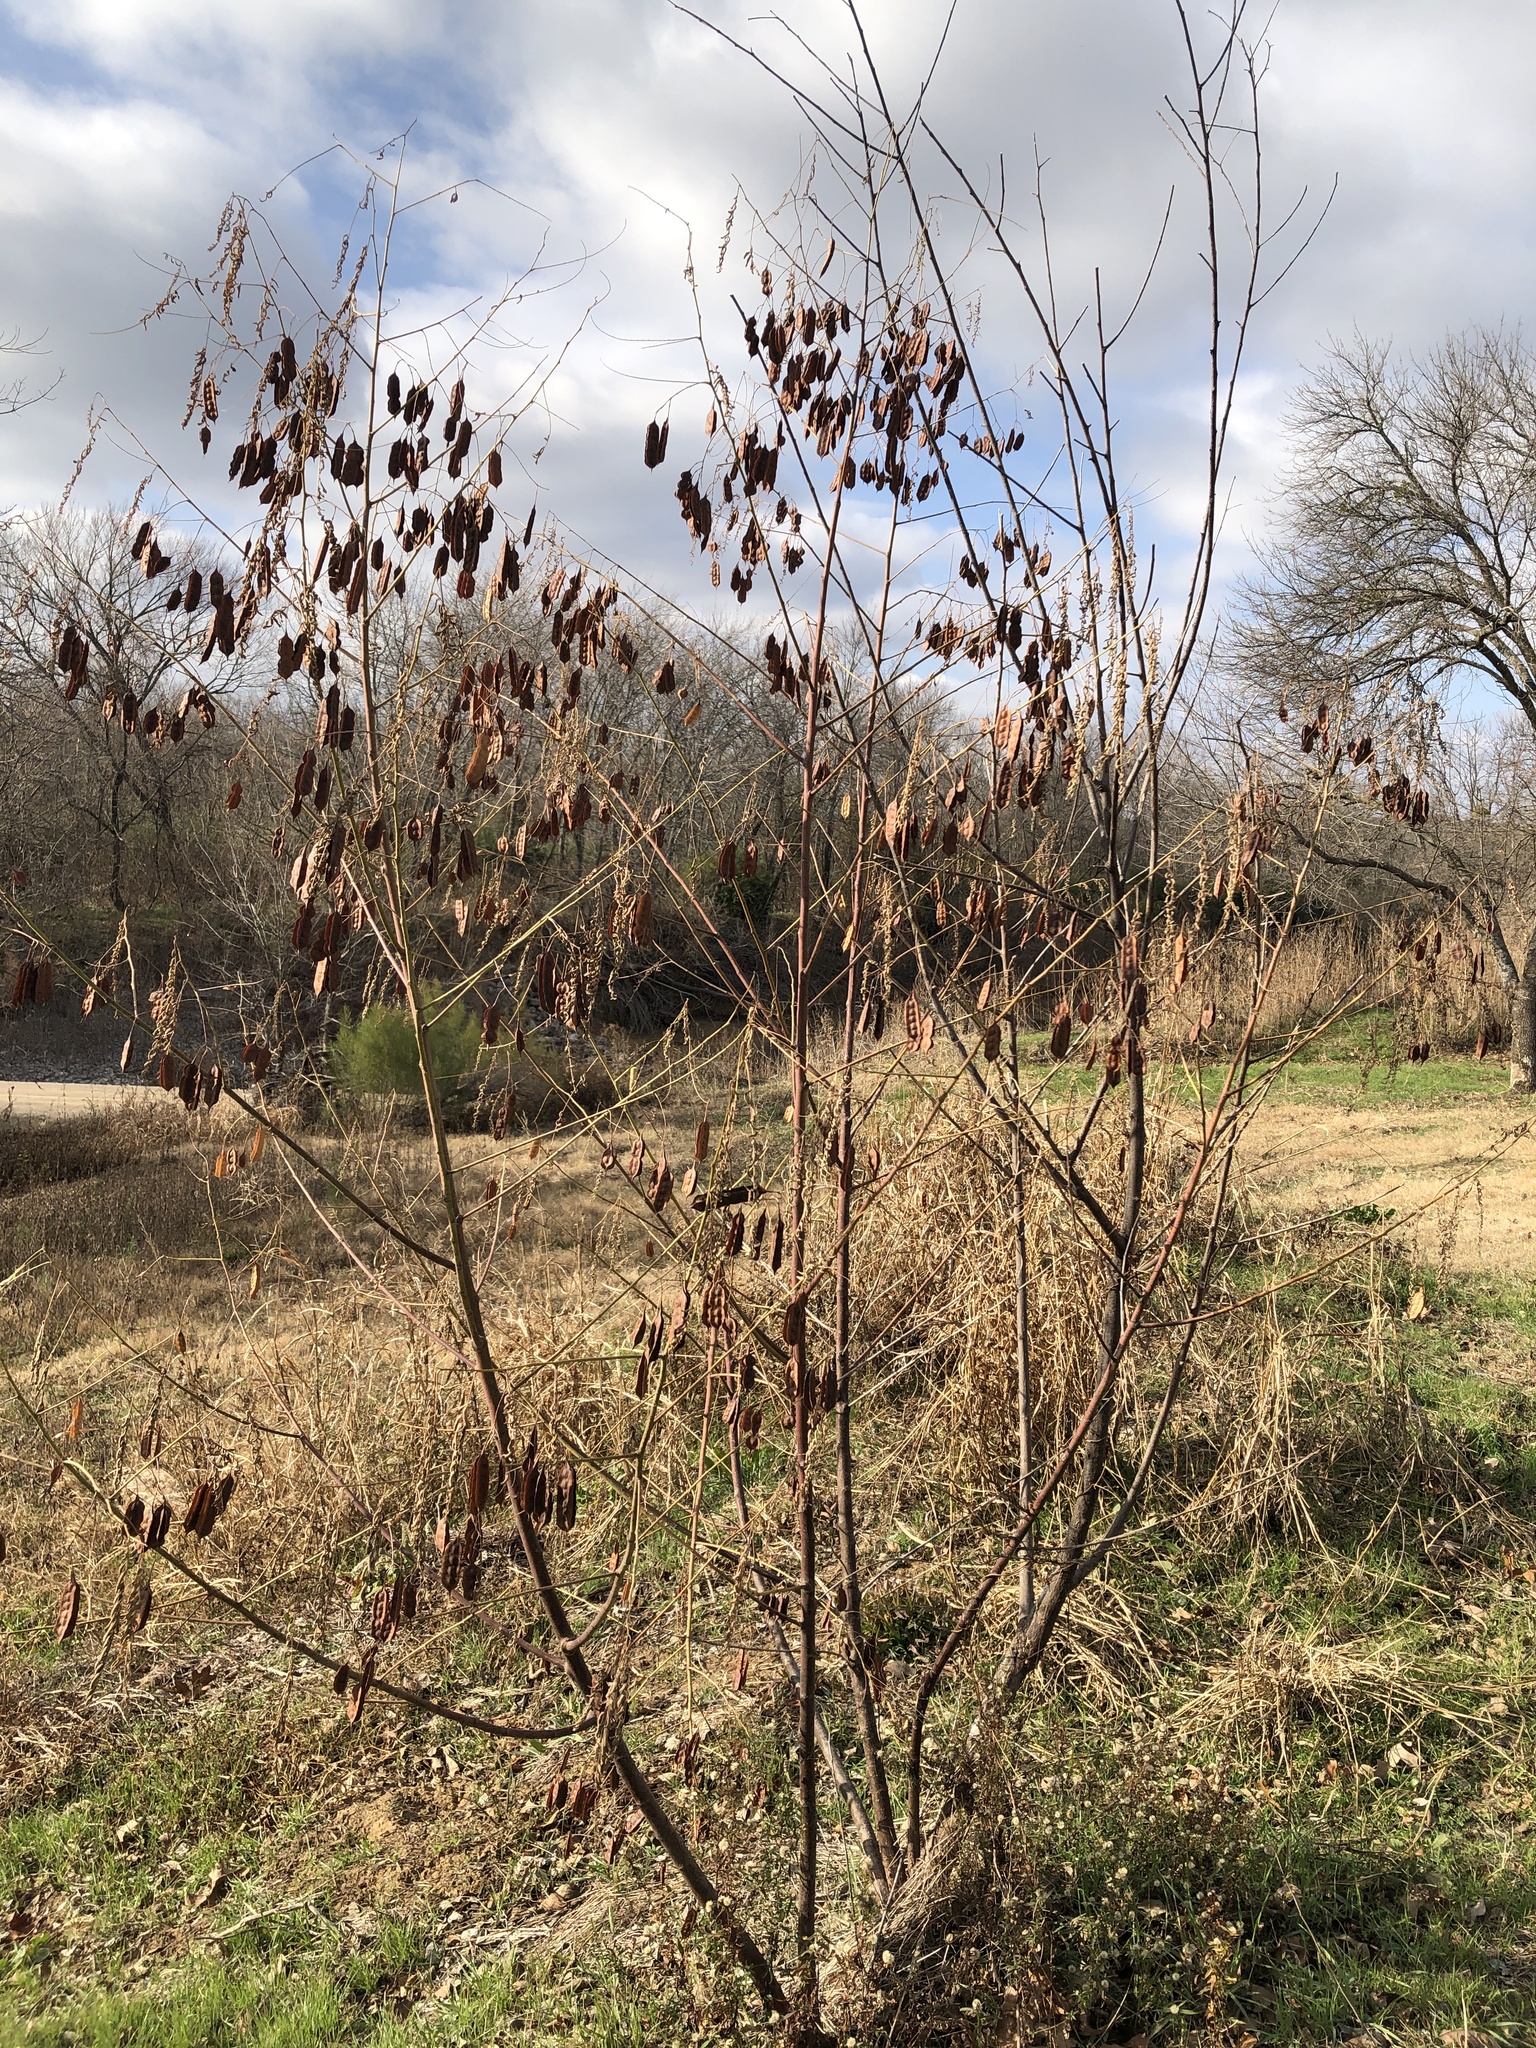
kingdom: Plantae
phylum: Tracheophyta
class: Magnoliopsida
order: Fabales
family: Fabaceae
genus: Sesbania
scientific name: Sesbania drummondii
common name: Poison-bean
